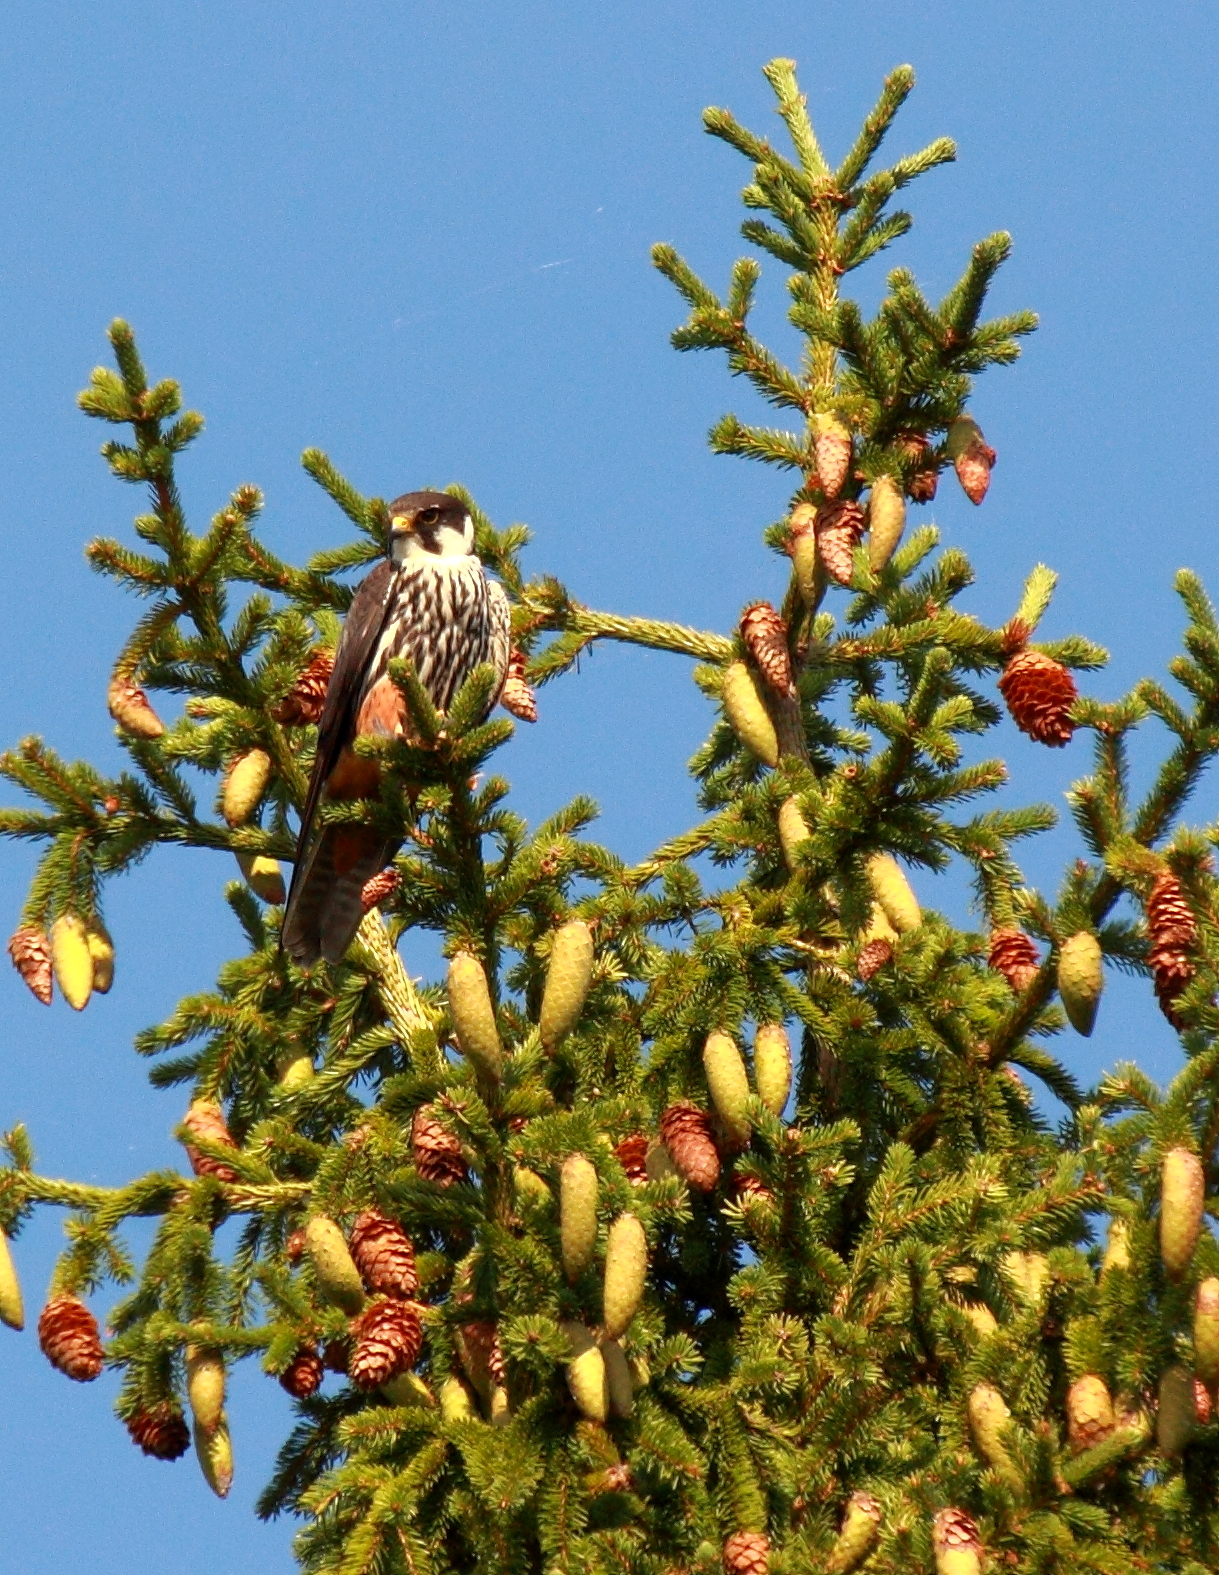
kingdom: Animalia
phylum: Chordata
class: Aves
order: Falconiformes
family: Falconidae
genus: Falco
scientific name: Falco subbuteo
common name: Eurasian hobby
